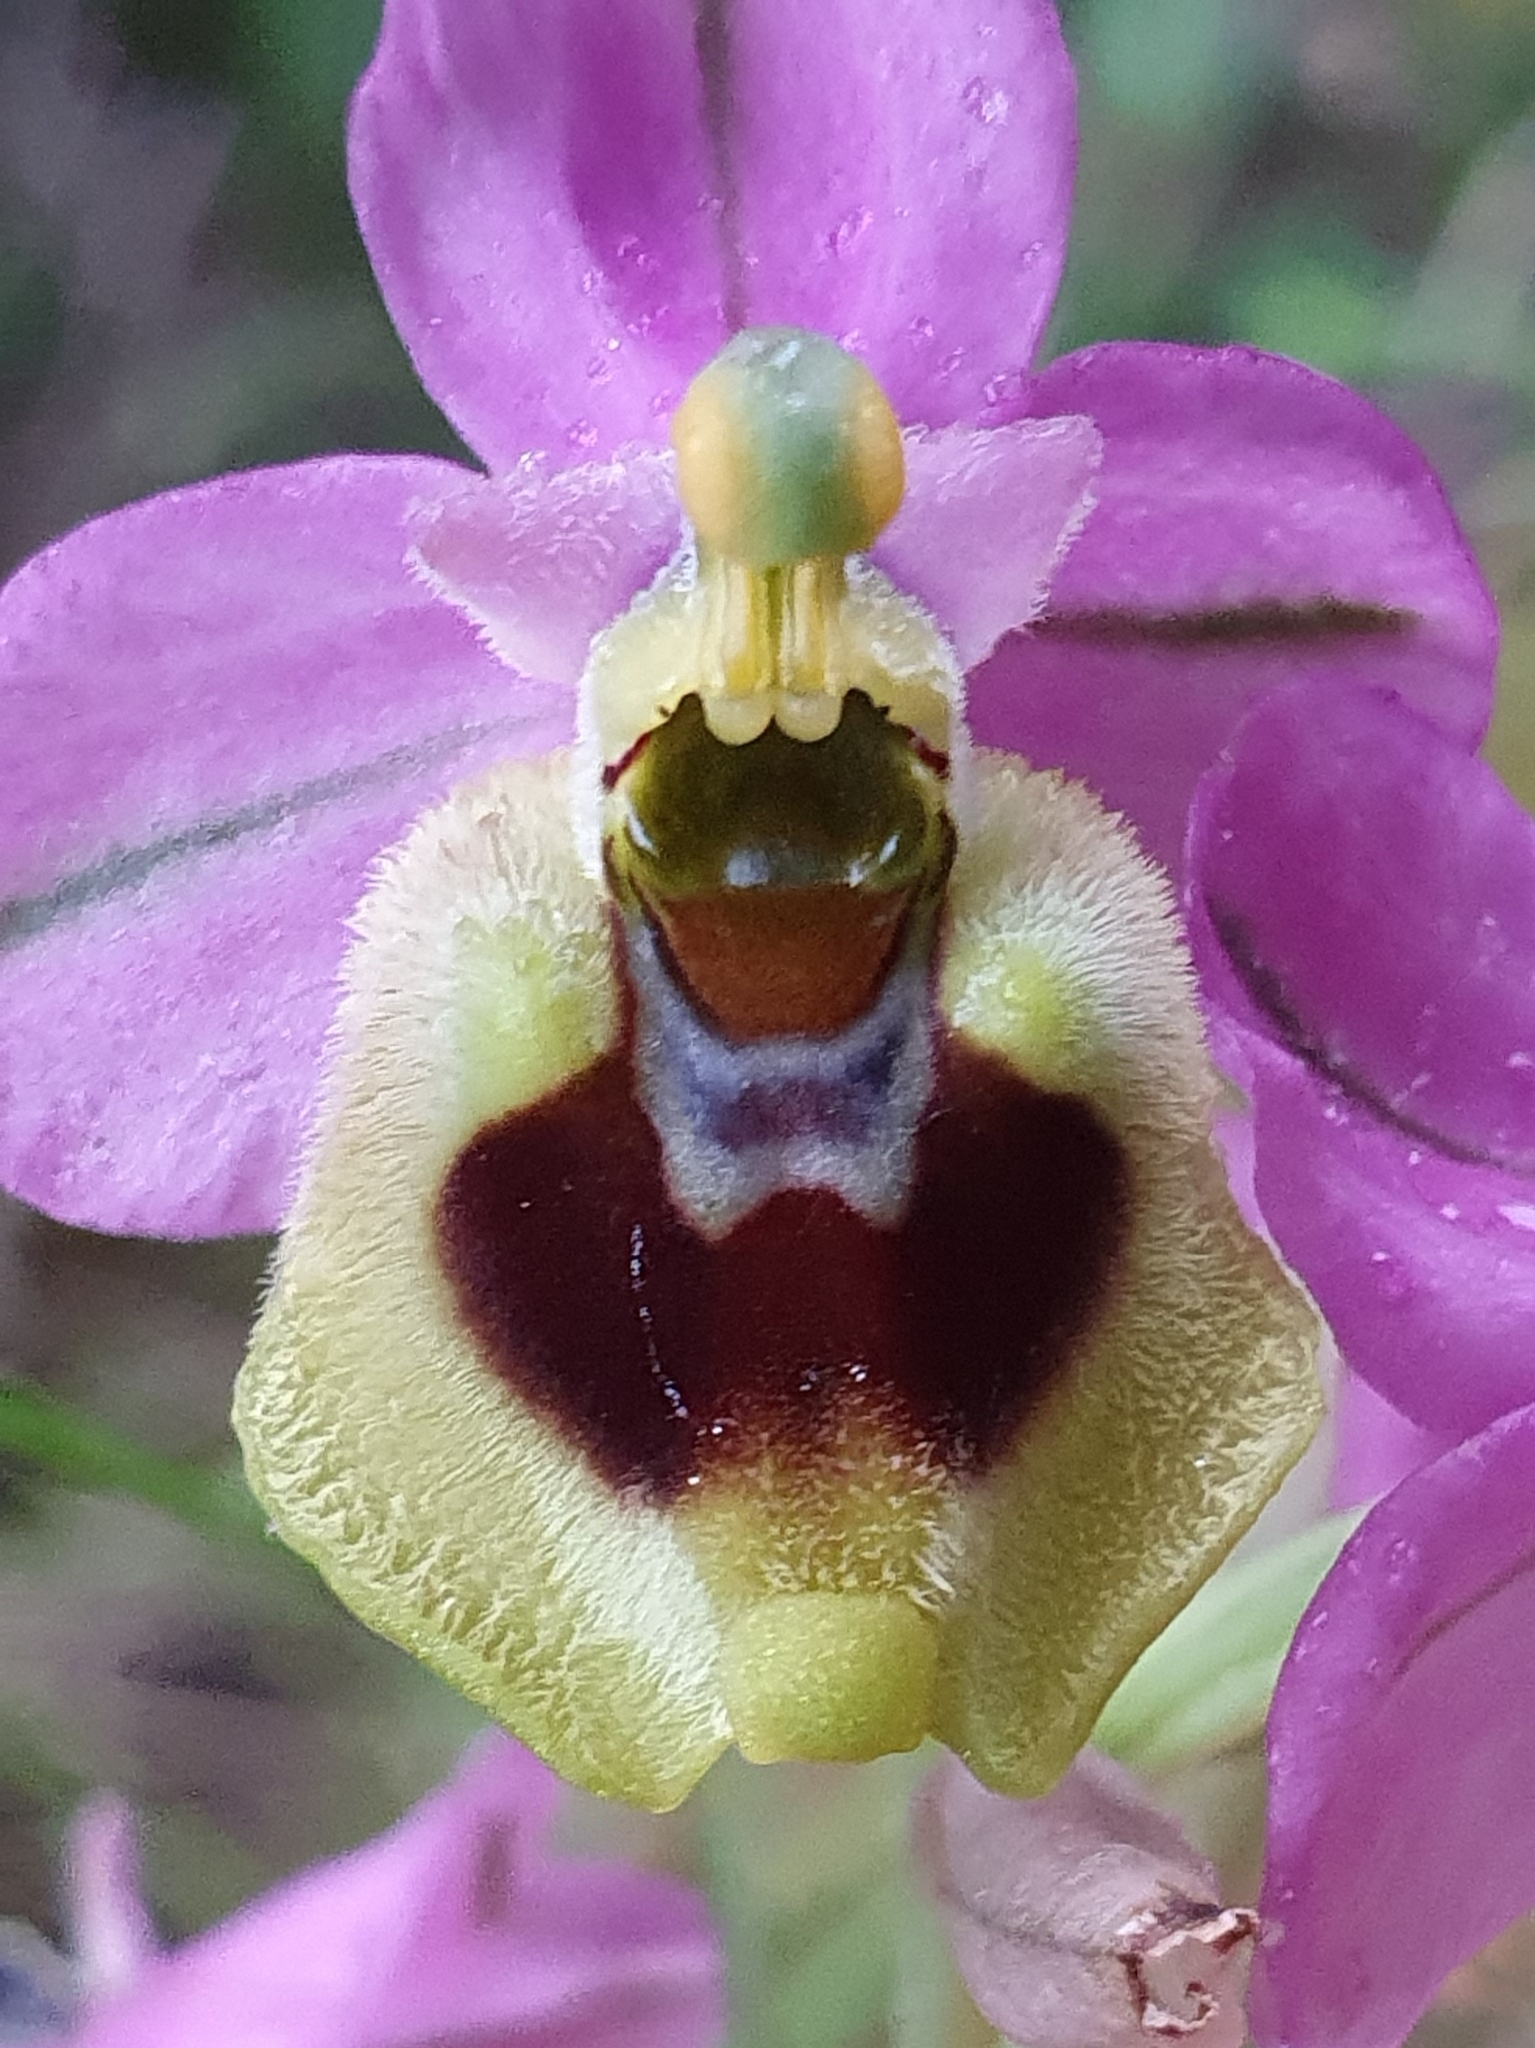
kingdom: Plantae
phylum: Tracheophyta
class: Liliopsida
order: Asparagales
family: Orchidaceae
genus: Ophrys
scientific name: Ophrys tenthredinifera
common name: Sawfly orchid
